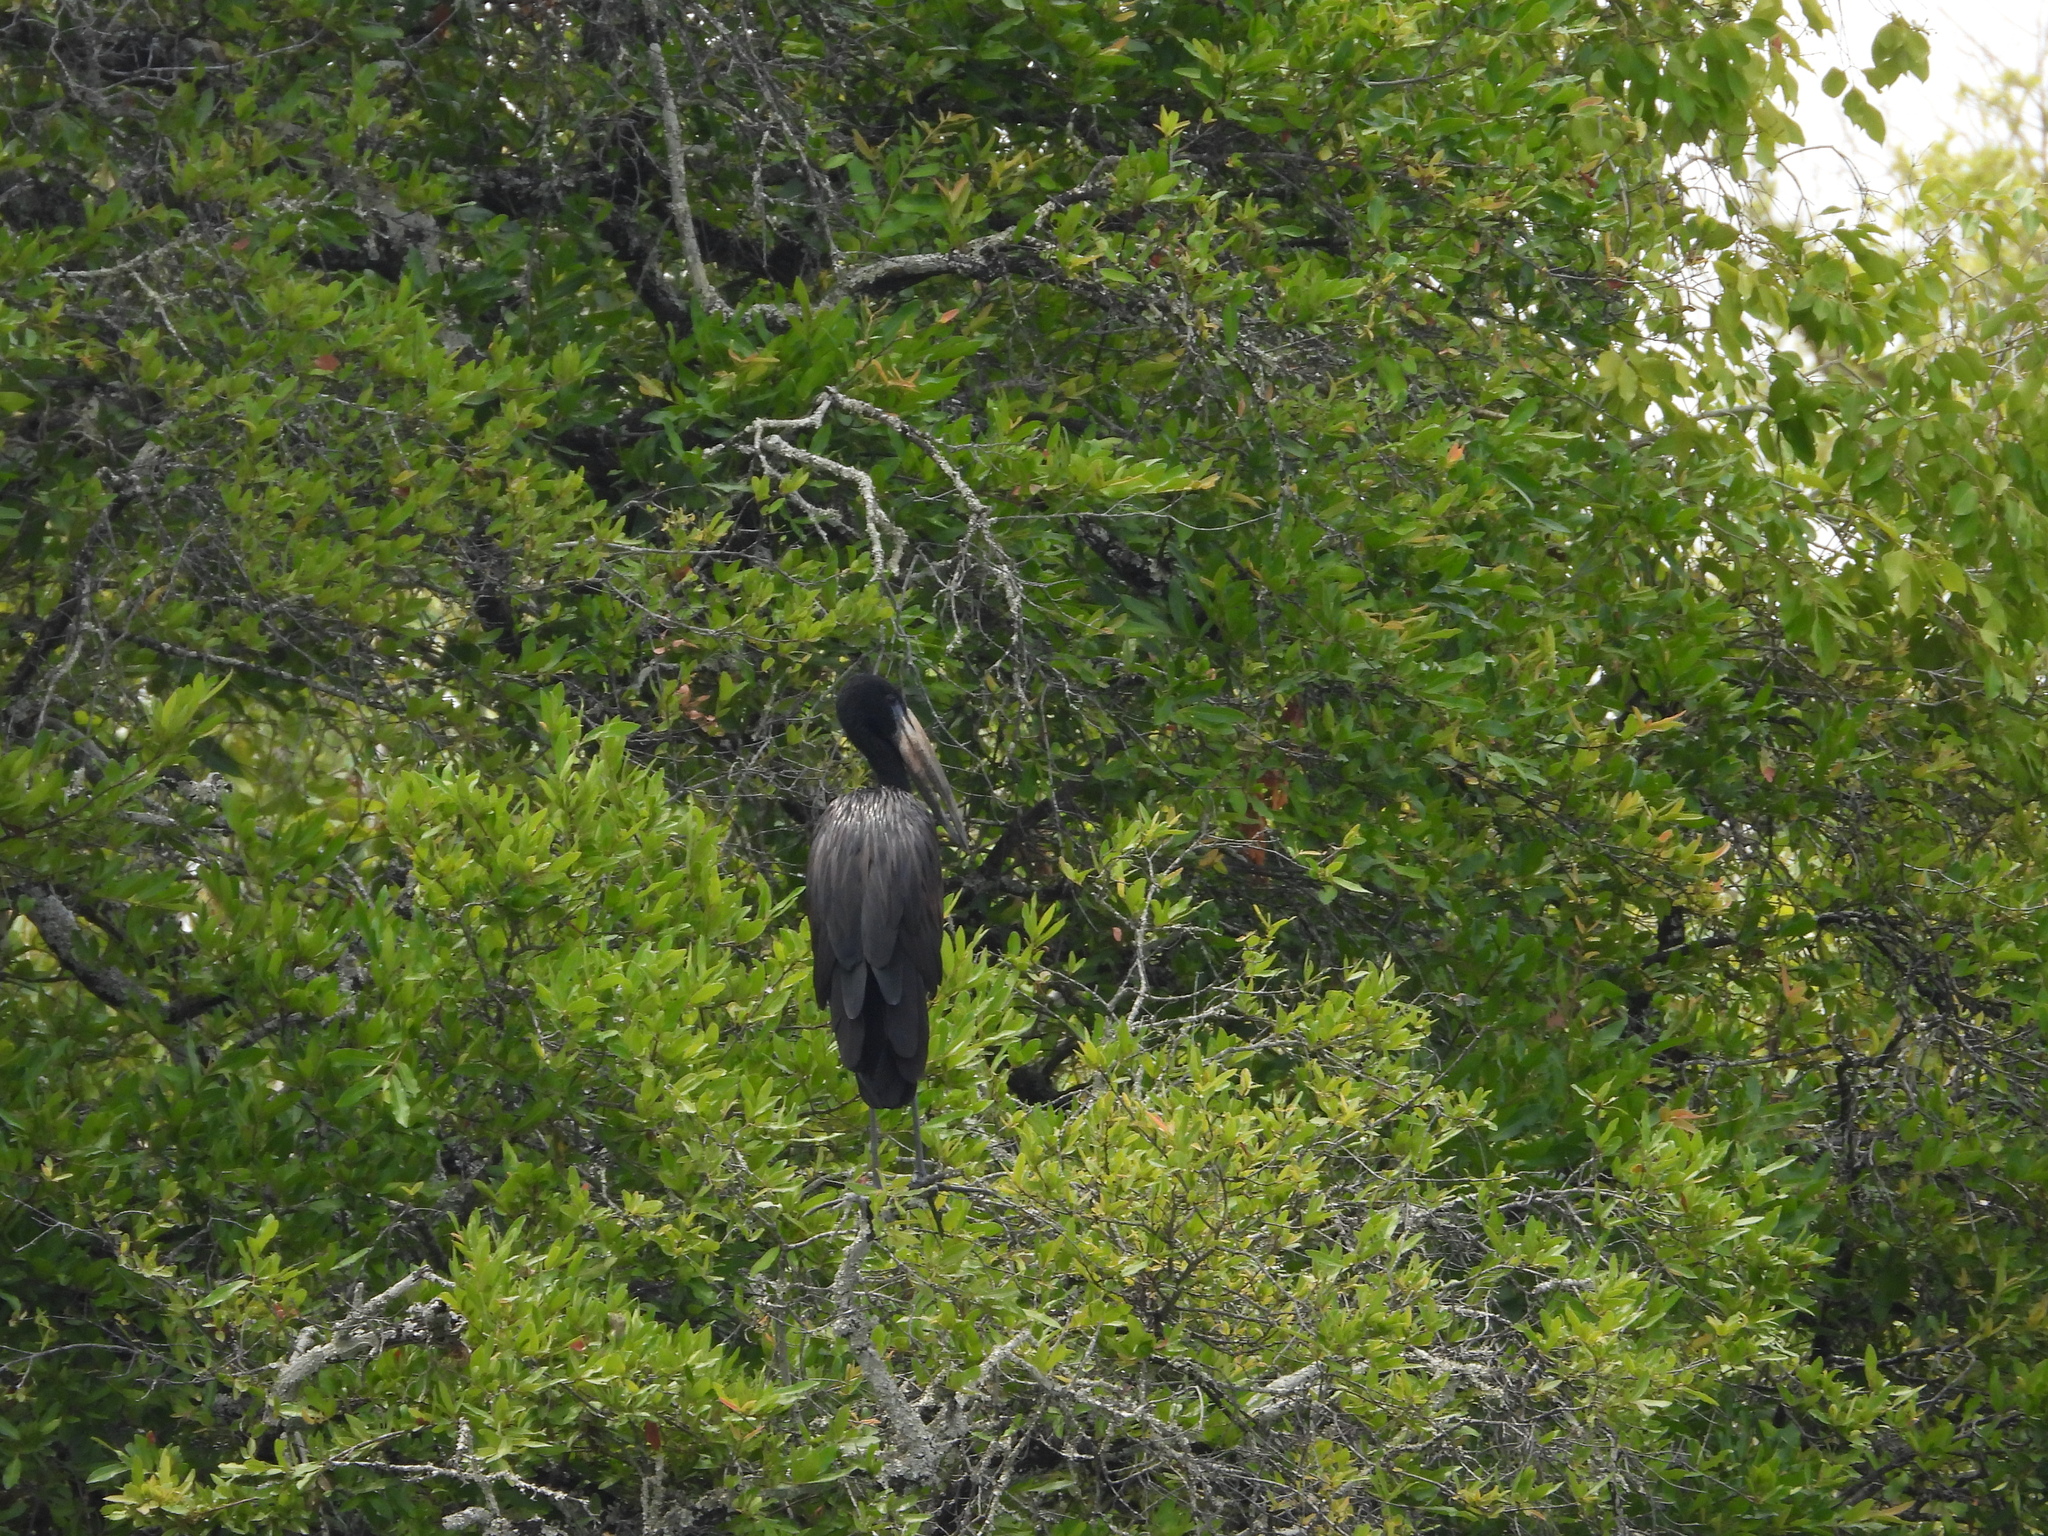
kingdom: Animalia
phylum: Chordata
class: Aves
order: Ciconiiformes
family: Ciconiidae
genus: Anastomus
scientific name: Anastomus lamelligerus
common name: African openbill
